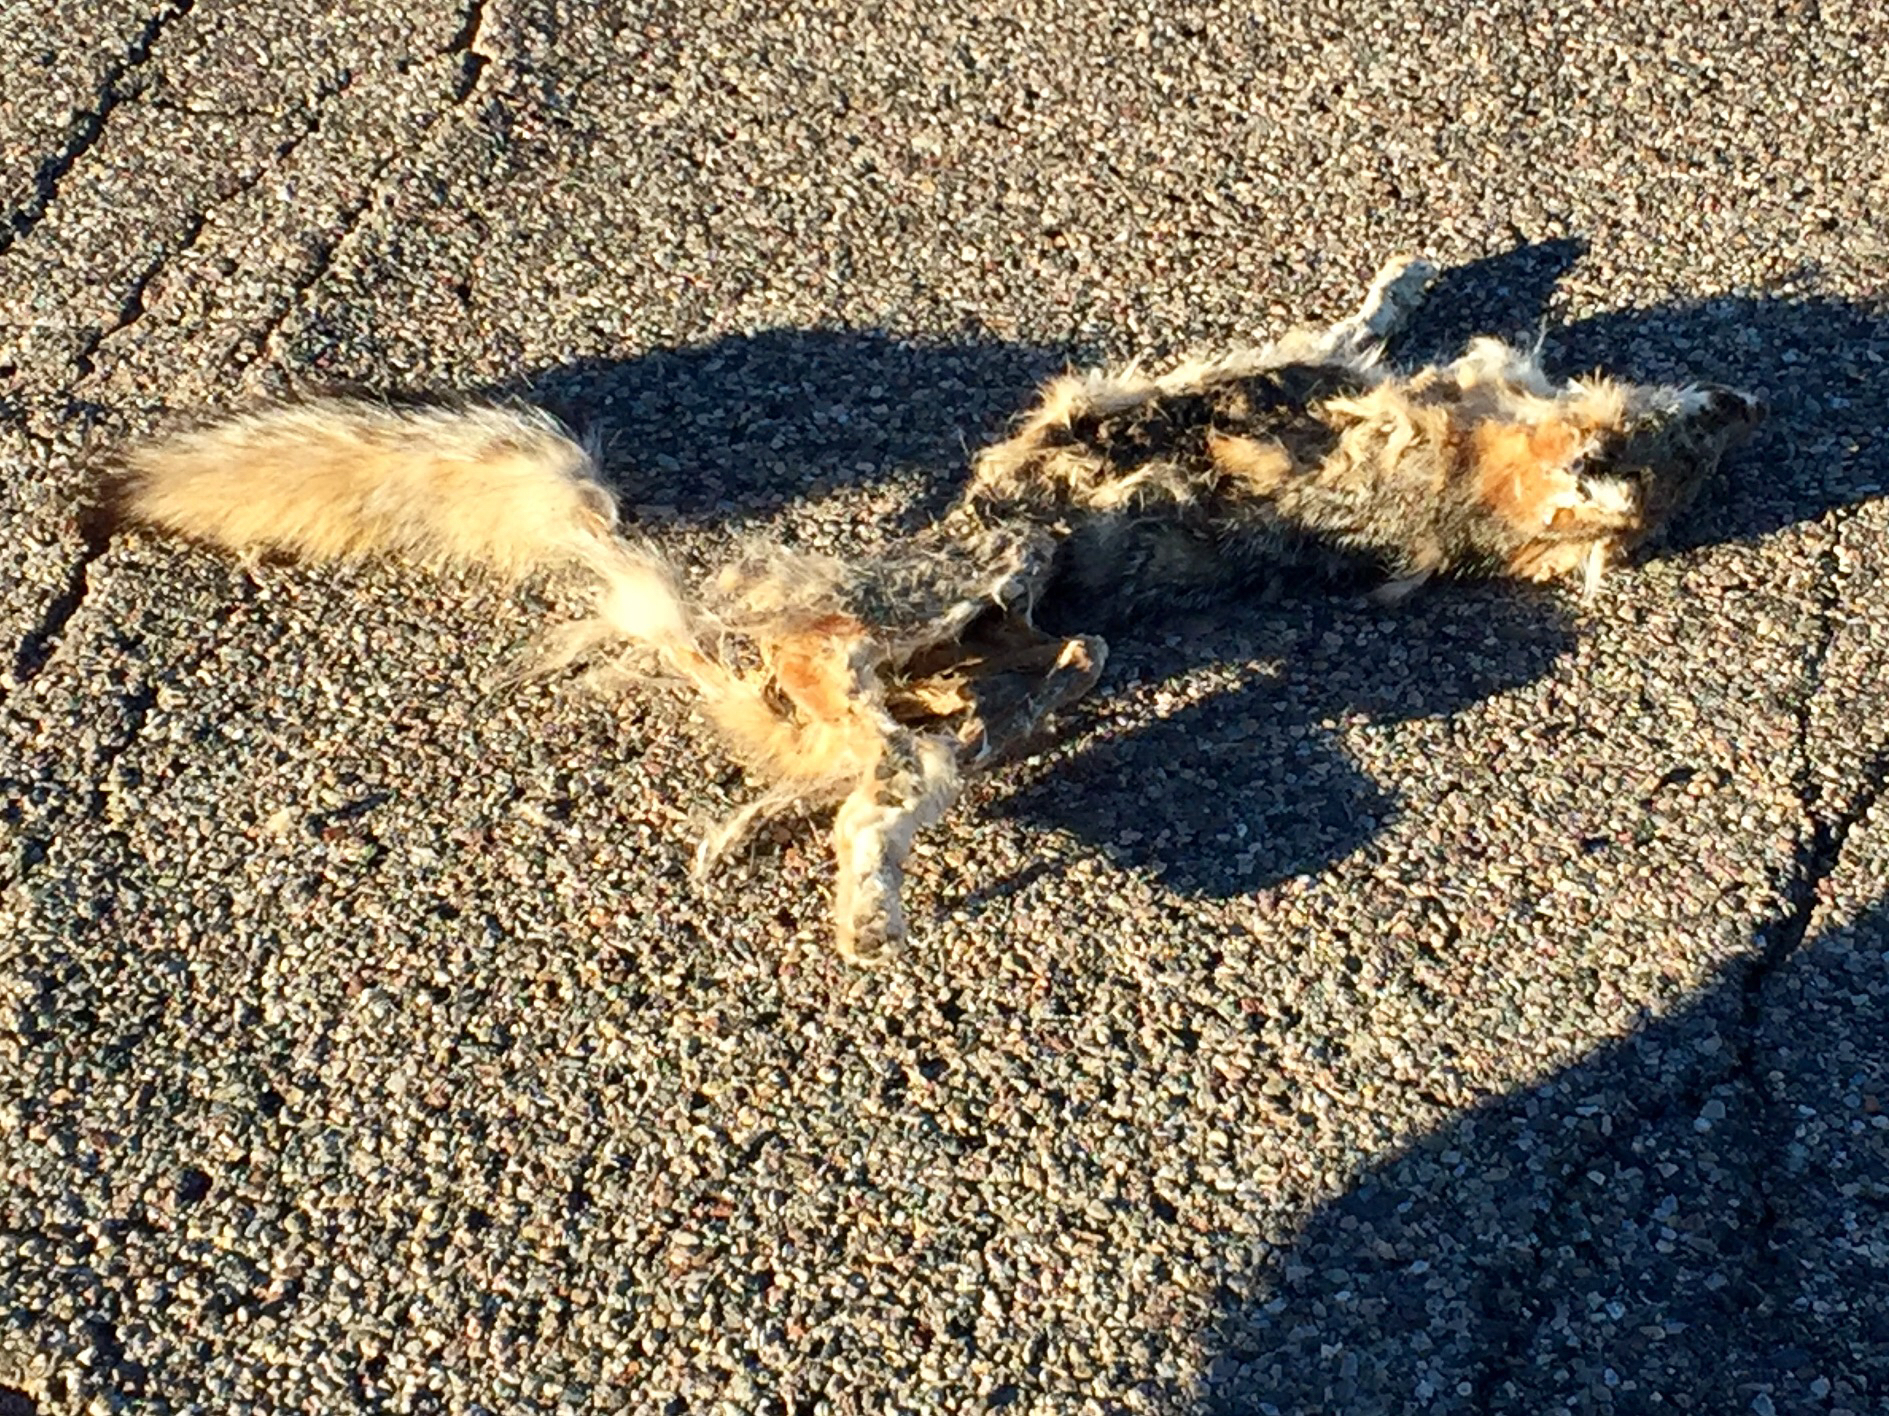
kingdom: Animalia
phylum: Chordata
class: Mammalia
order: Carnivora
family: Canidae
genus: Urocyon
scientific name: Urocyon cinereoargenteus
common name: Gray fox
